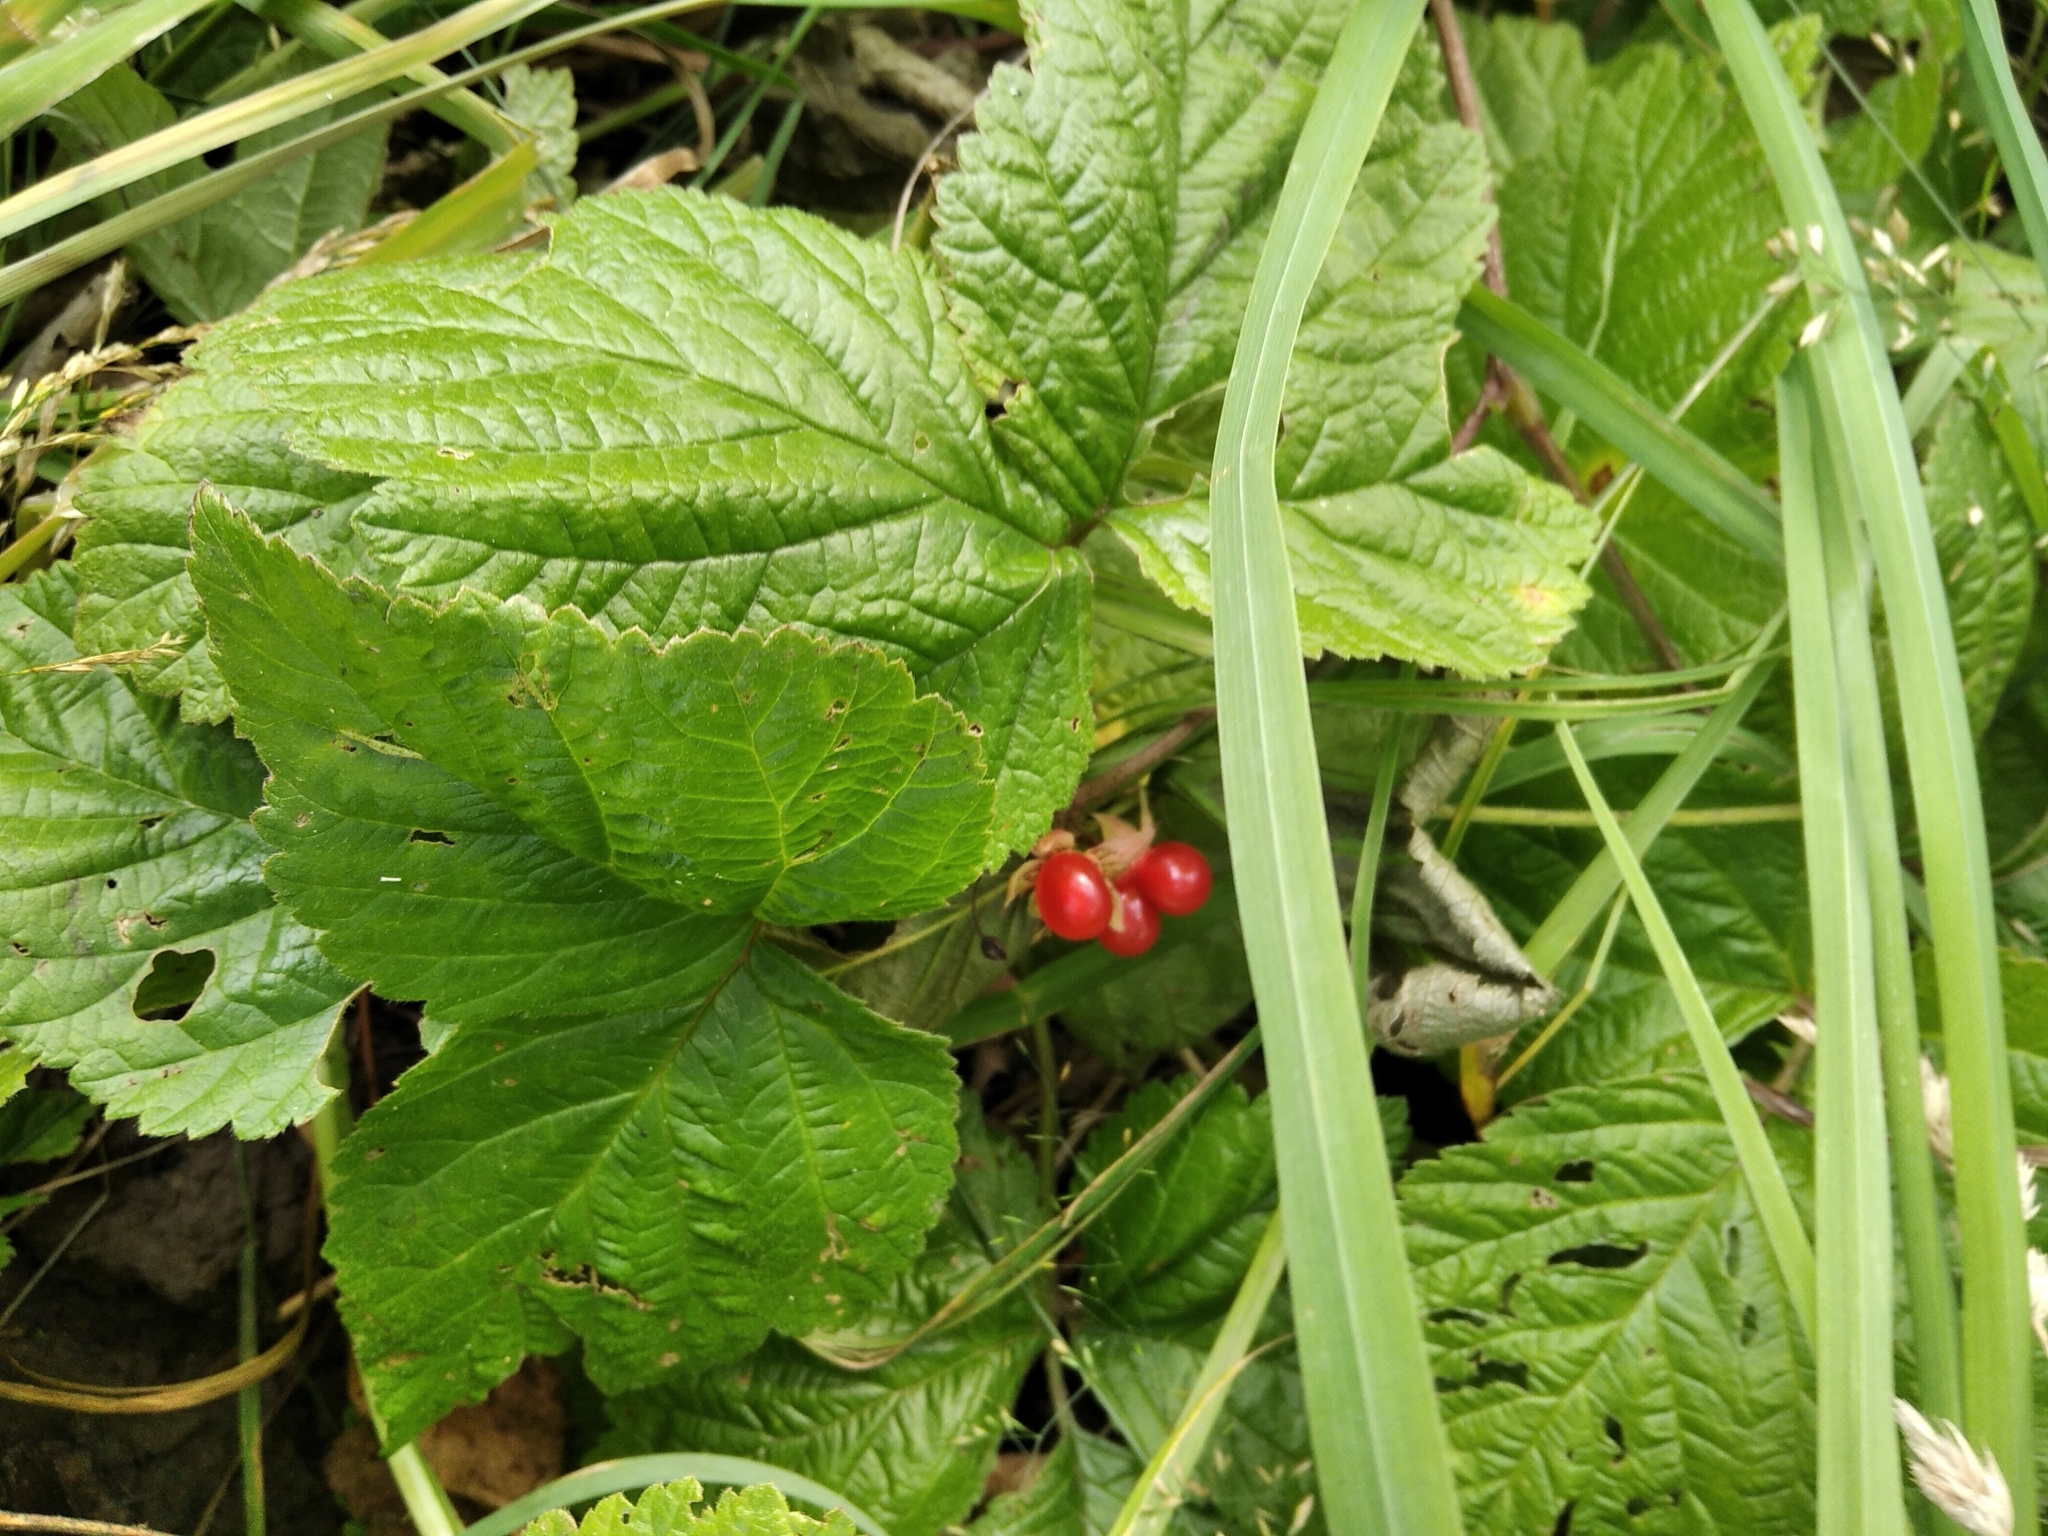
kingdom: Plantae
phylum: Tracheophyta
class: Magnoliopsida
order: Rosales
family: Rosaceae
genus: Rubus
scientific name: Rubus saxatilis
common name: Stone bramble
